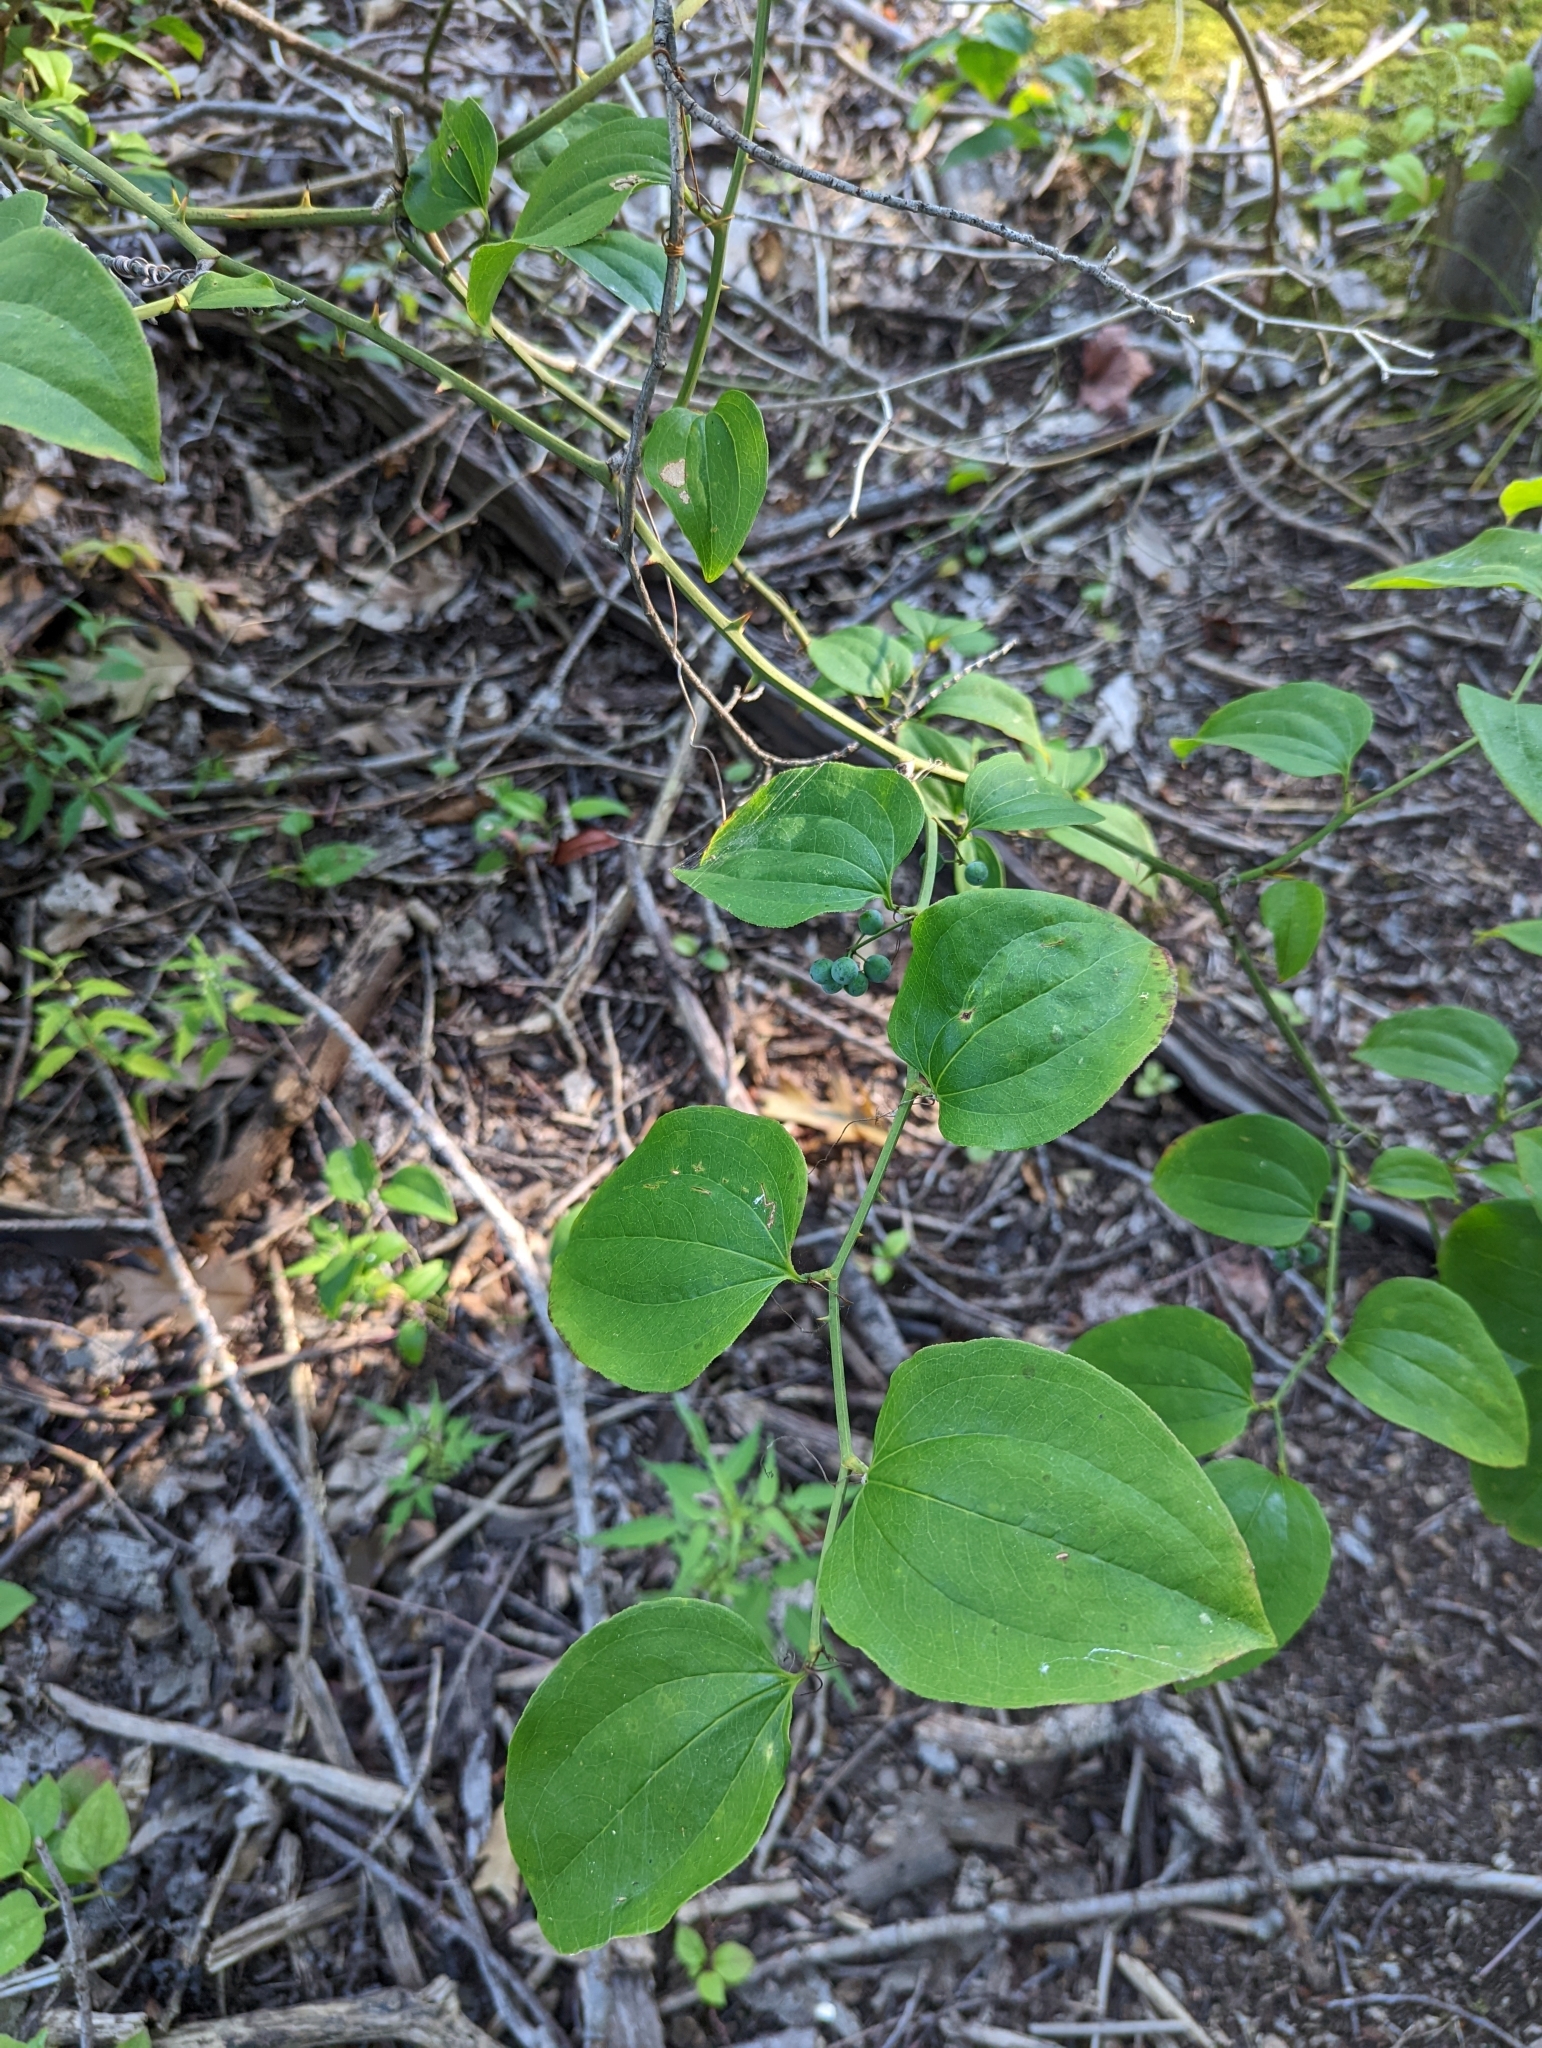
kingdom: Plantae
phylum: Tracheophyta
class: Liliopsida
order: Liliales
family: Smilacaceae
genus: Smilax
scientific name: Smilax rotundifolia
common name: Bullbriar
